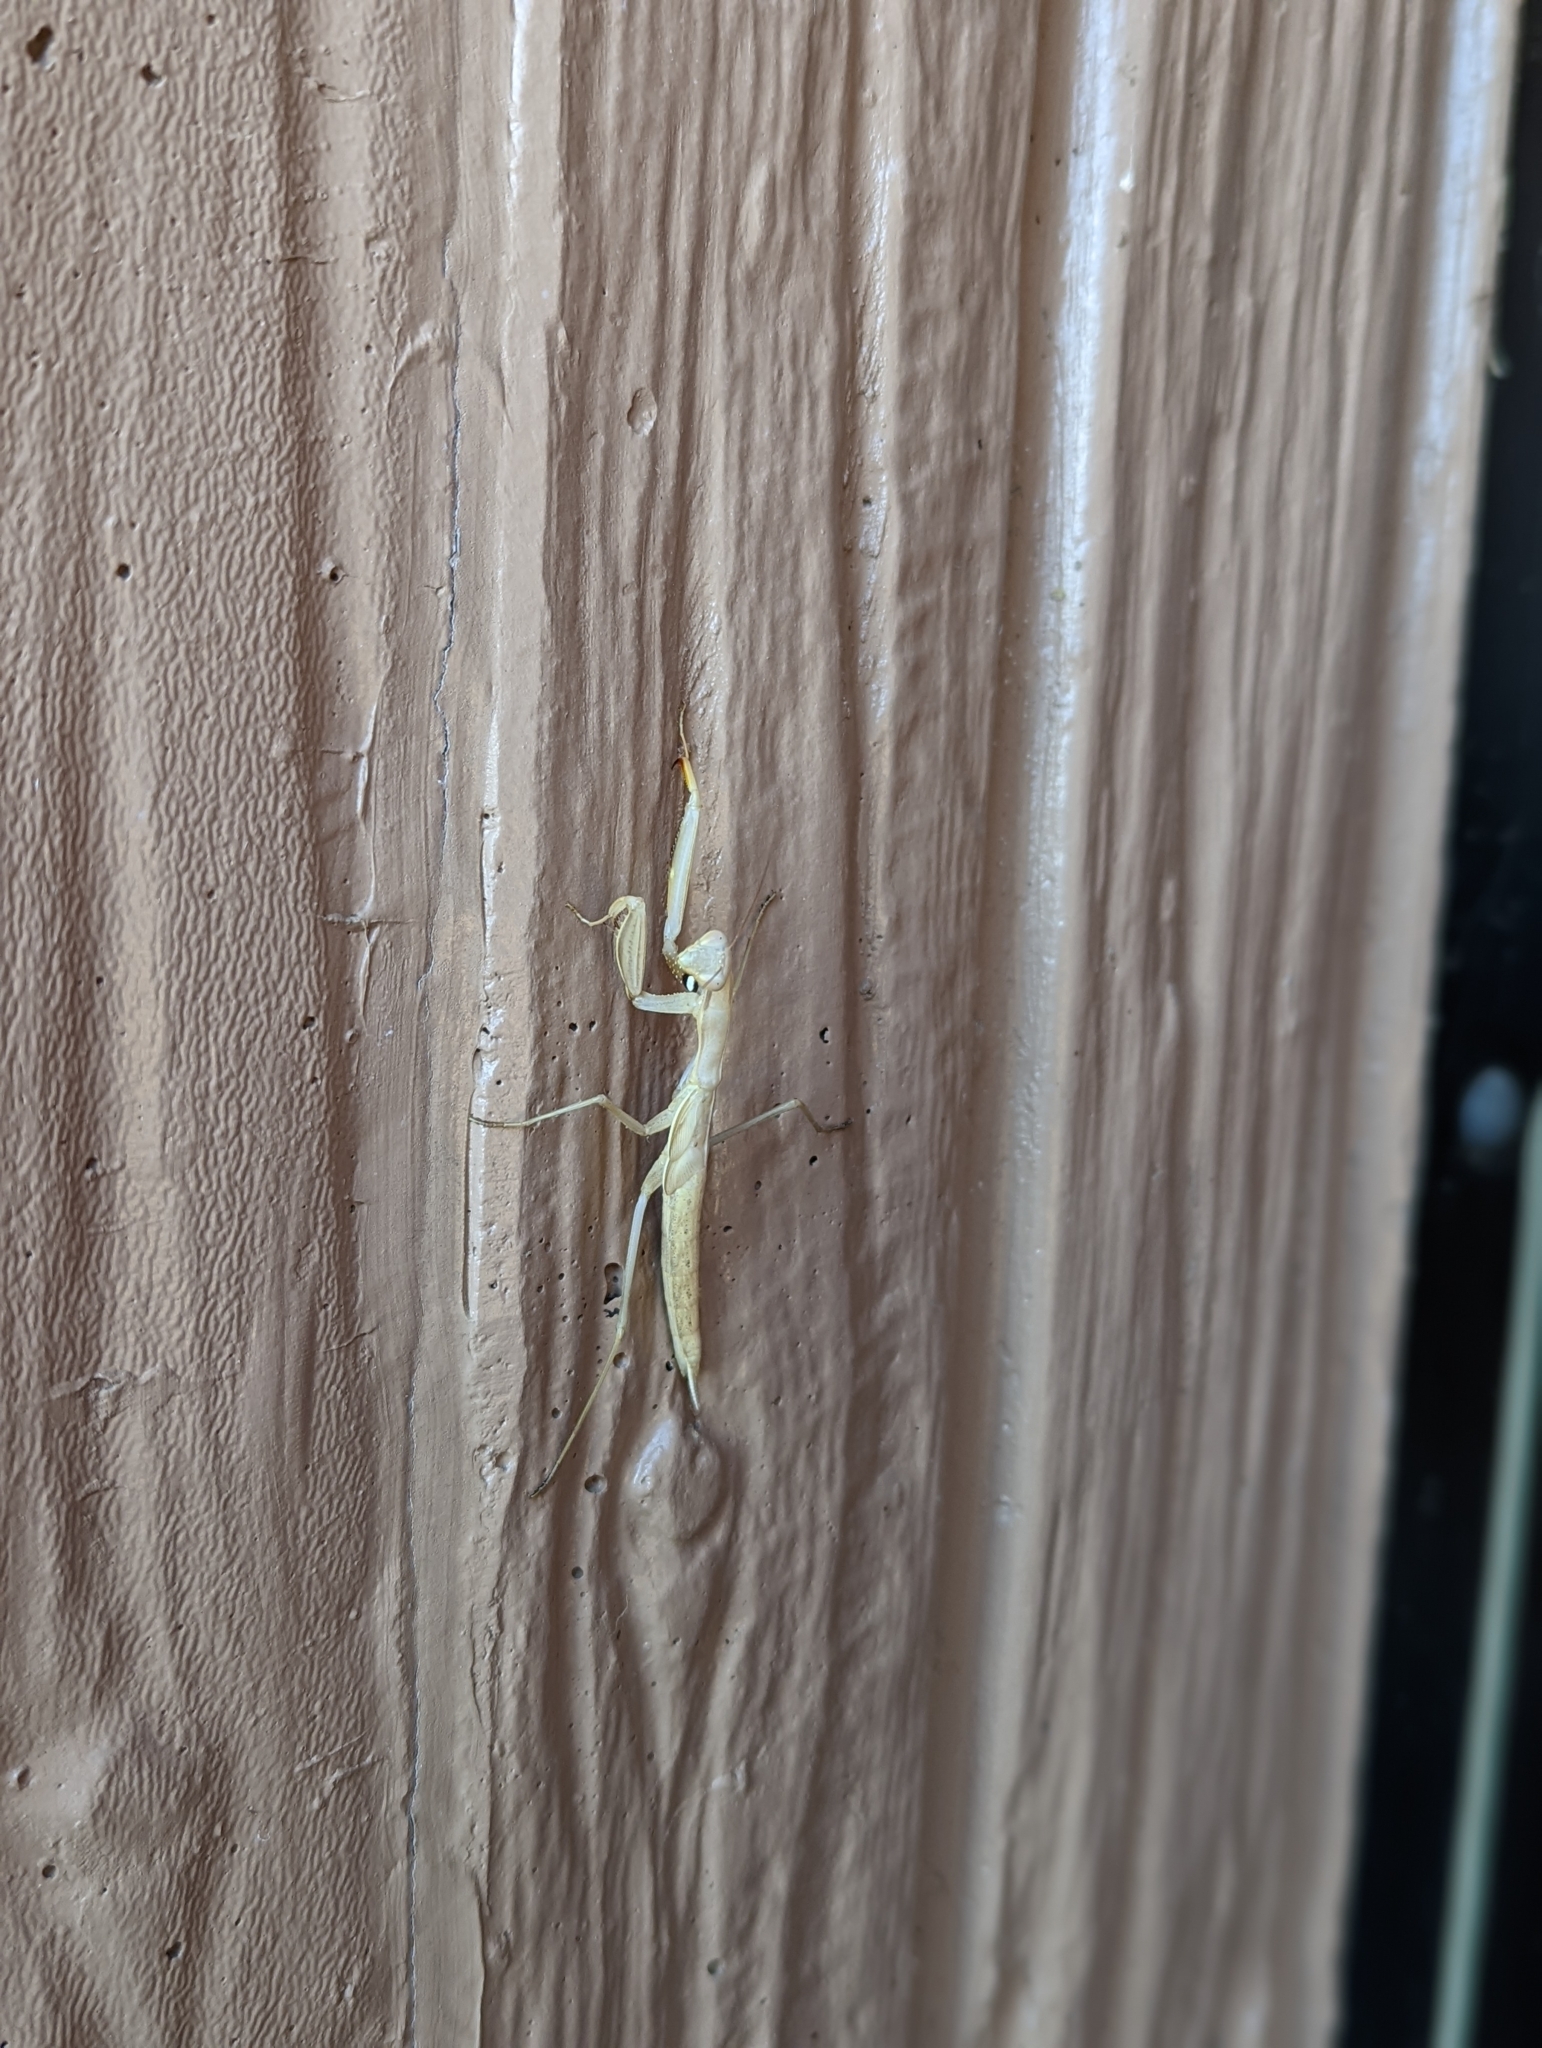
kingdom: Animalia
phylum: Arthropoda
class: Insecta
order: Mantodea
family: Mantidae
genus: Mantis
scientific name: Mantis religiosa
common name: Praying mantis
